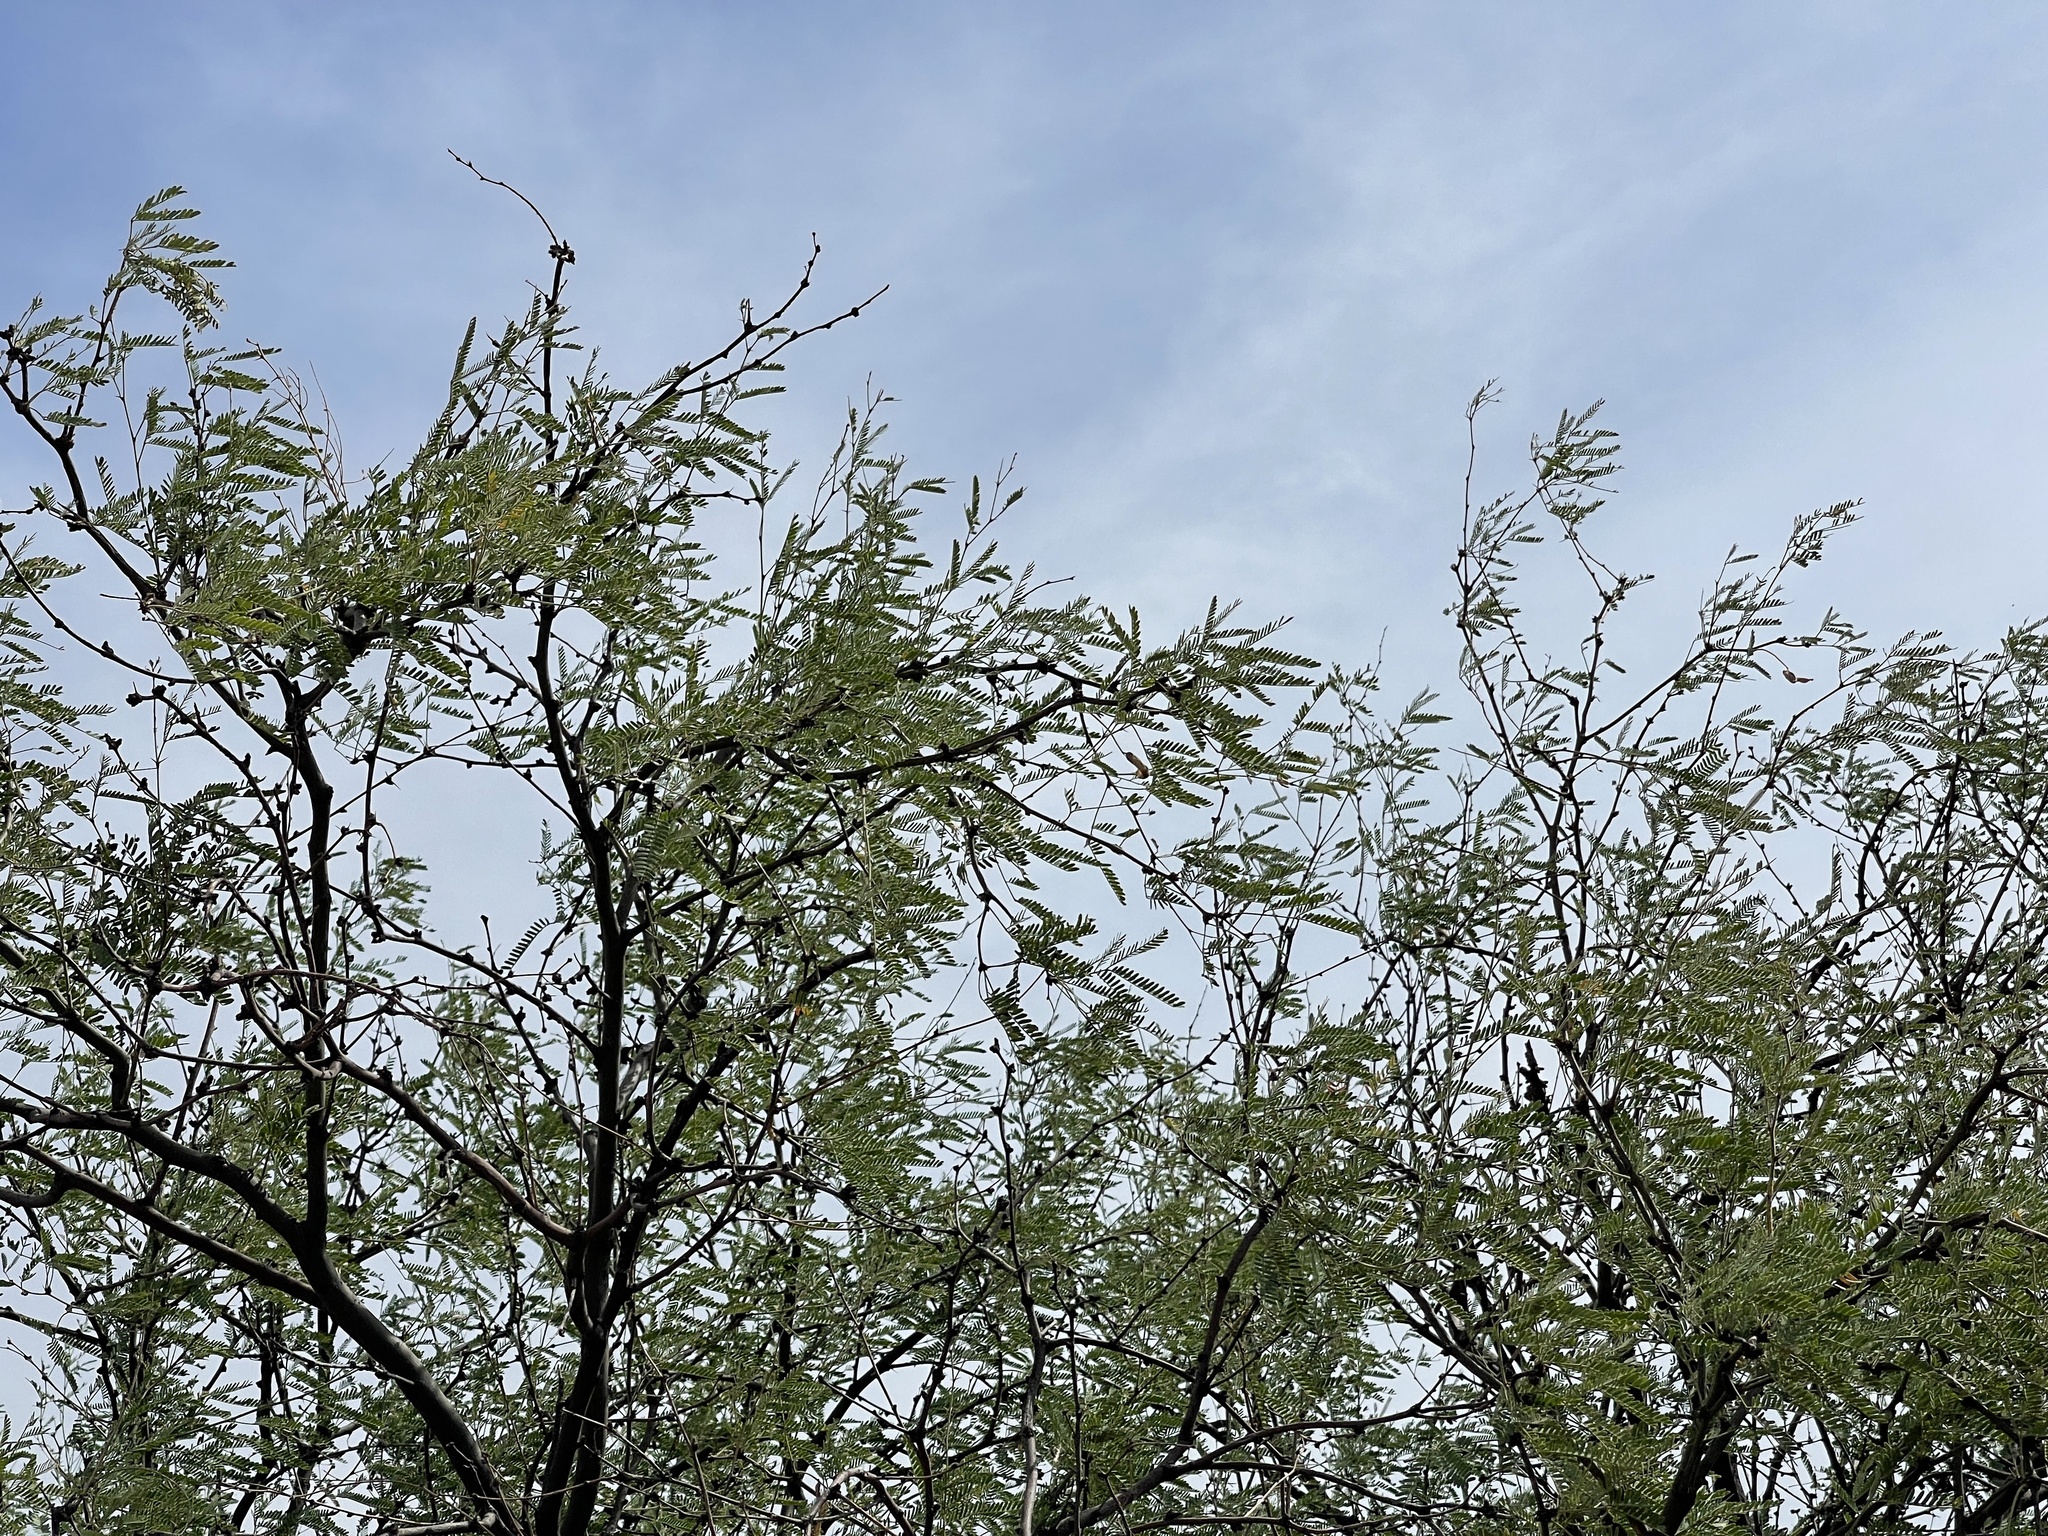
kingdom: Plantae
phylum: Tracheophyta
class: Magnoliopsida
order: Fabales
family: Fabaceae
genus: Prosopis
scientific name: Prosopis velutina
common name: Velvet mesquite
